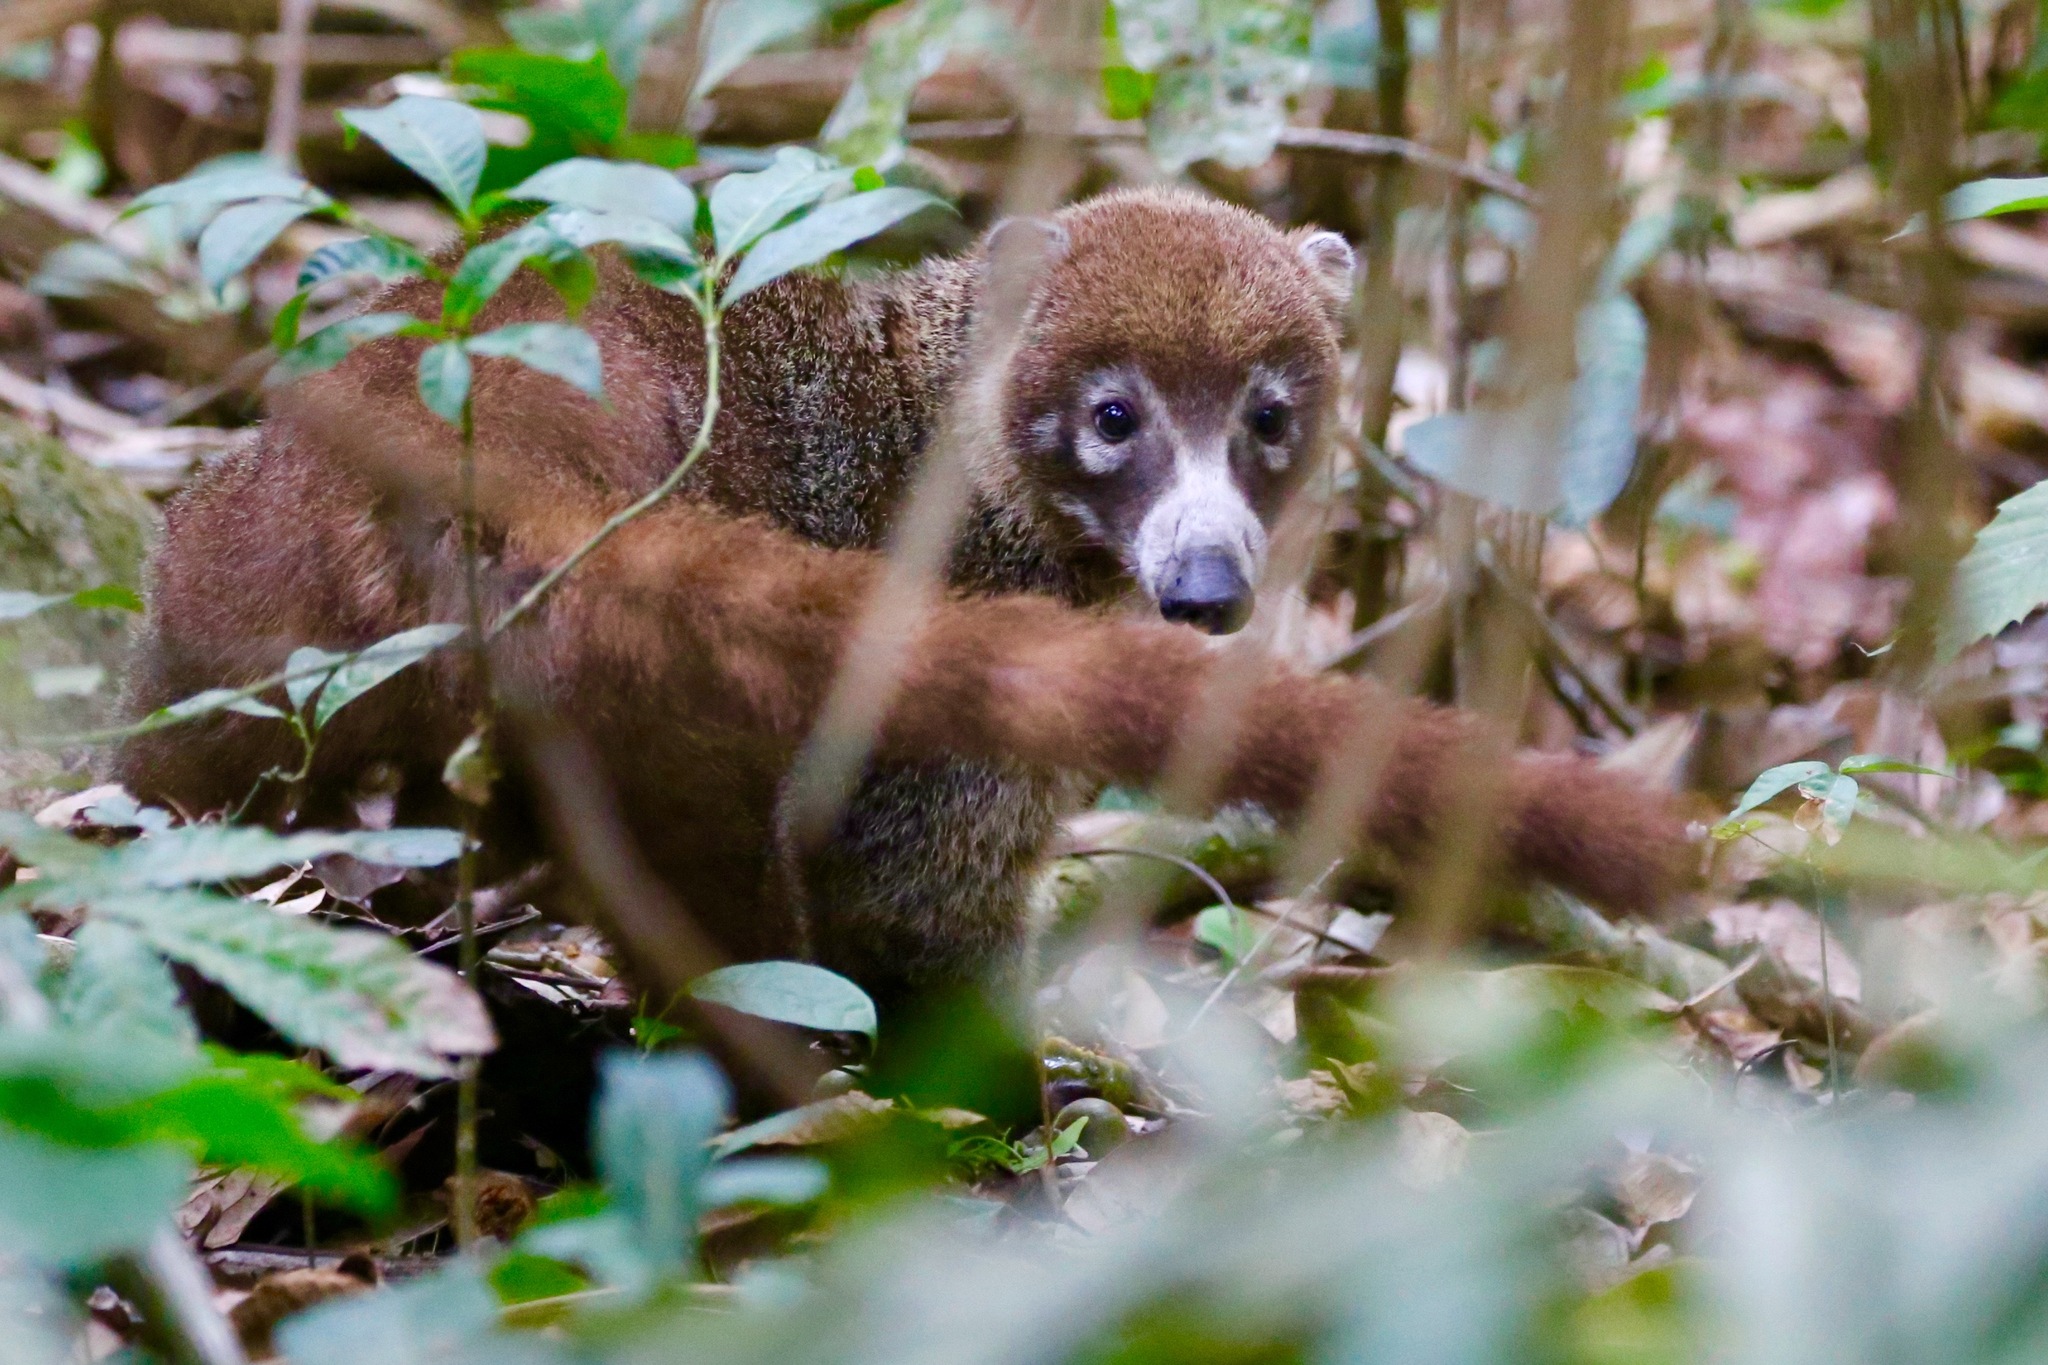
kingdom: Animalia
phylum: Chordata
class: Mammalia
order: Carnivora
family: Procyonidae
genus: Nasua
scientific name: Nasua narica
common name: White-nosed coati
